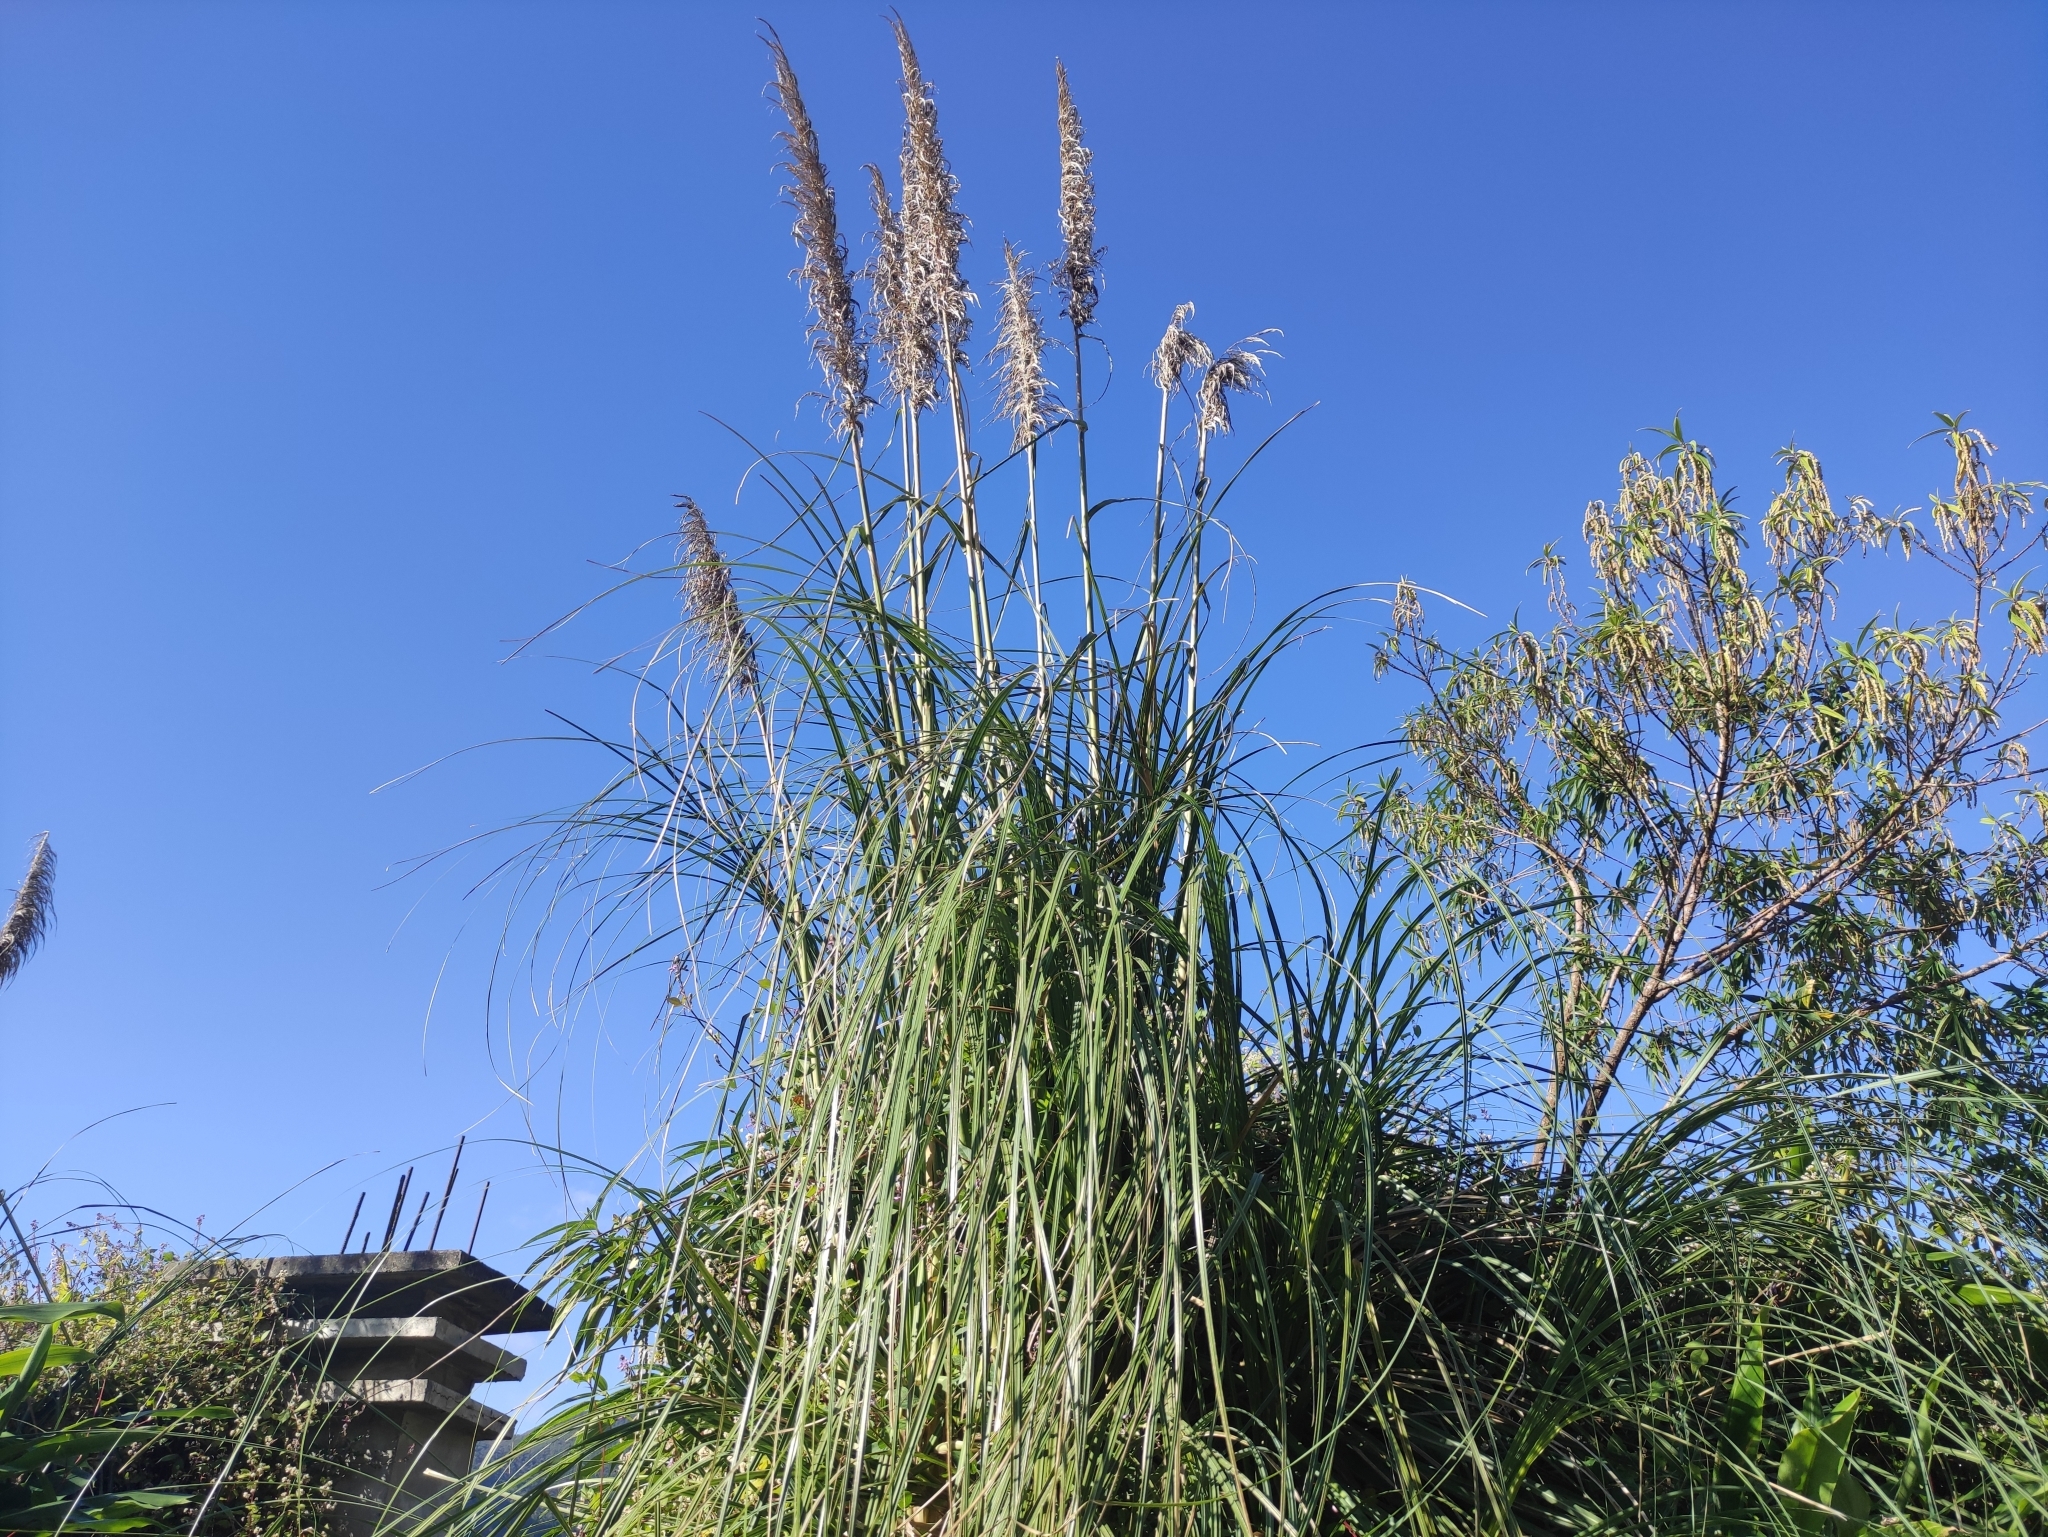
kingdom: Plantae
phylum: Tracheophyta
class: Liliopsida
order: Poales
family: Poaceae
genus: Cortaderia
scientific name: Cortaderia selloana
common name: Uruguayan pampas grass
